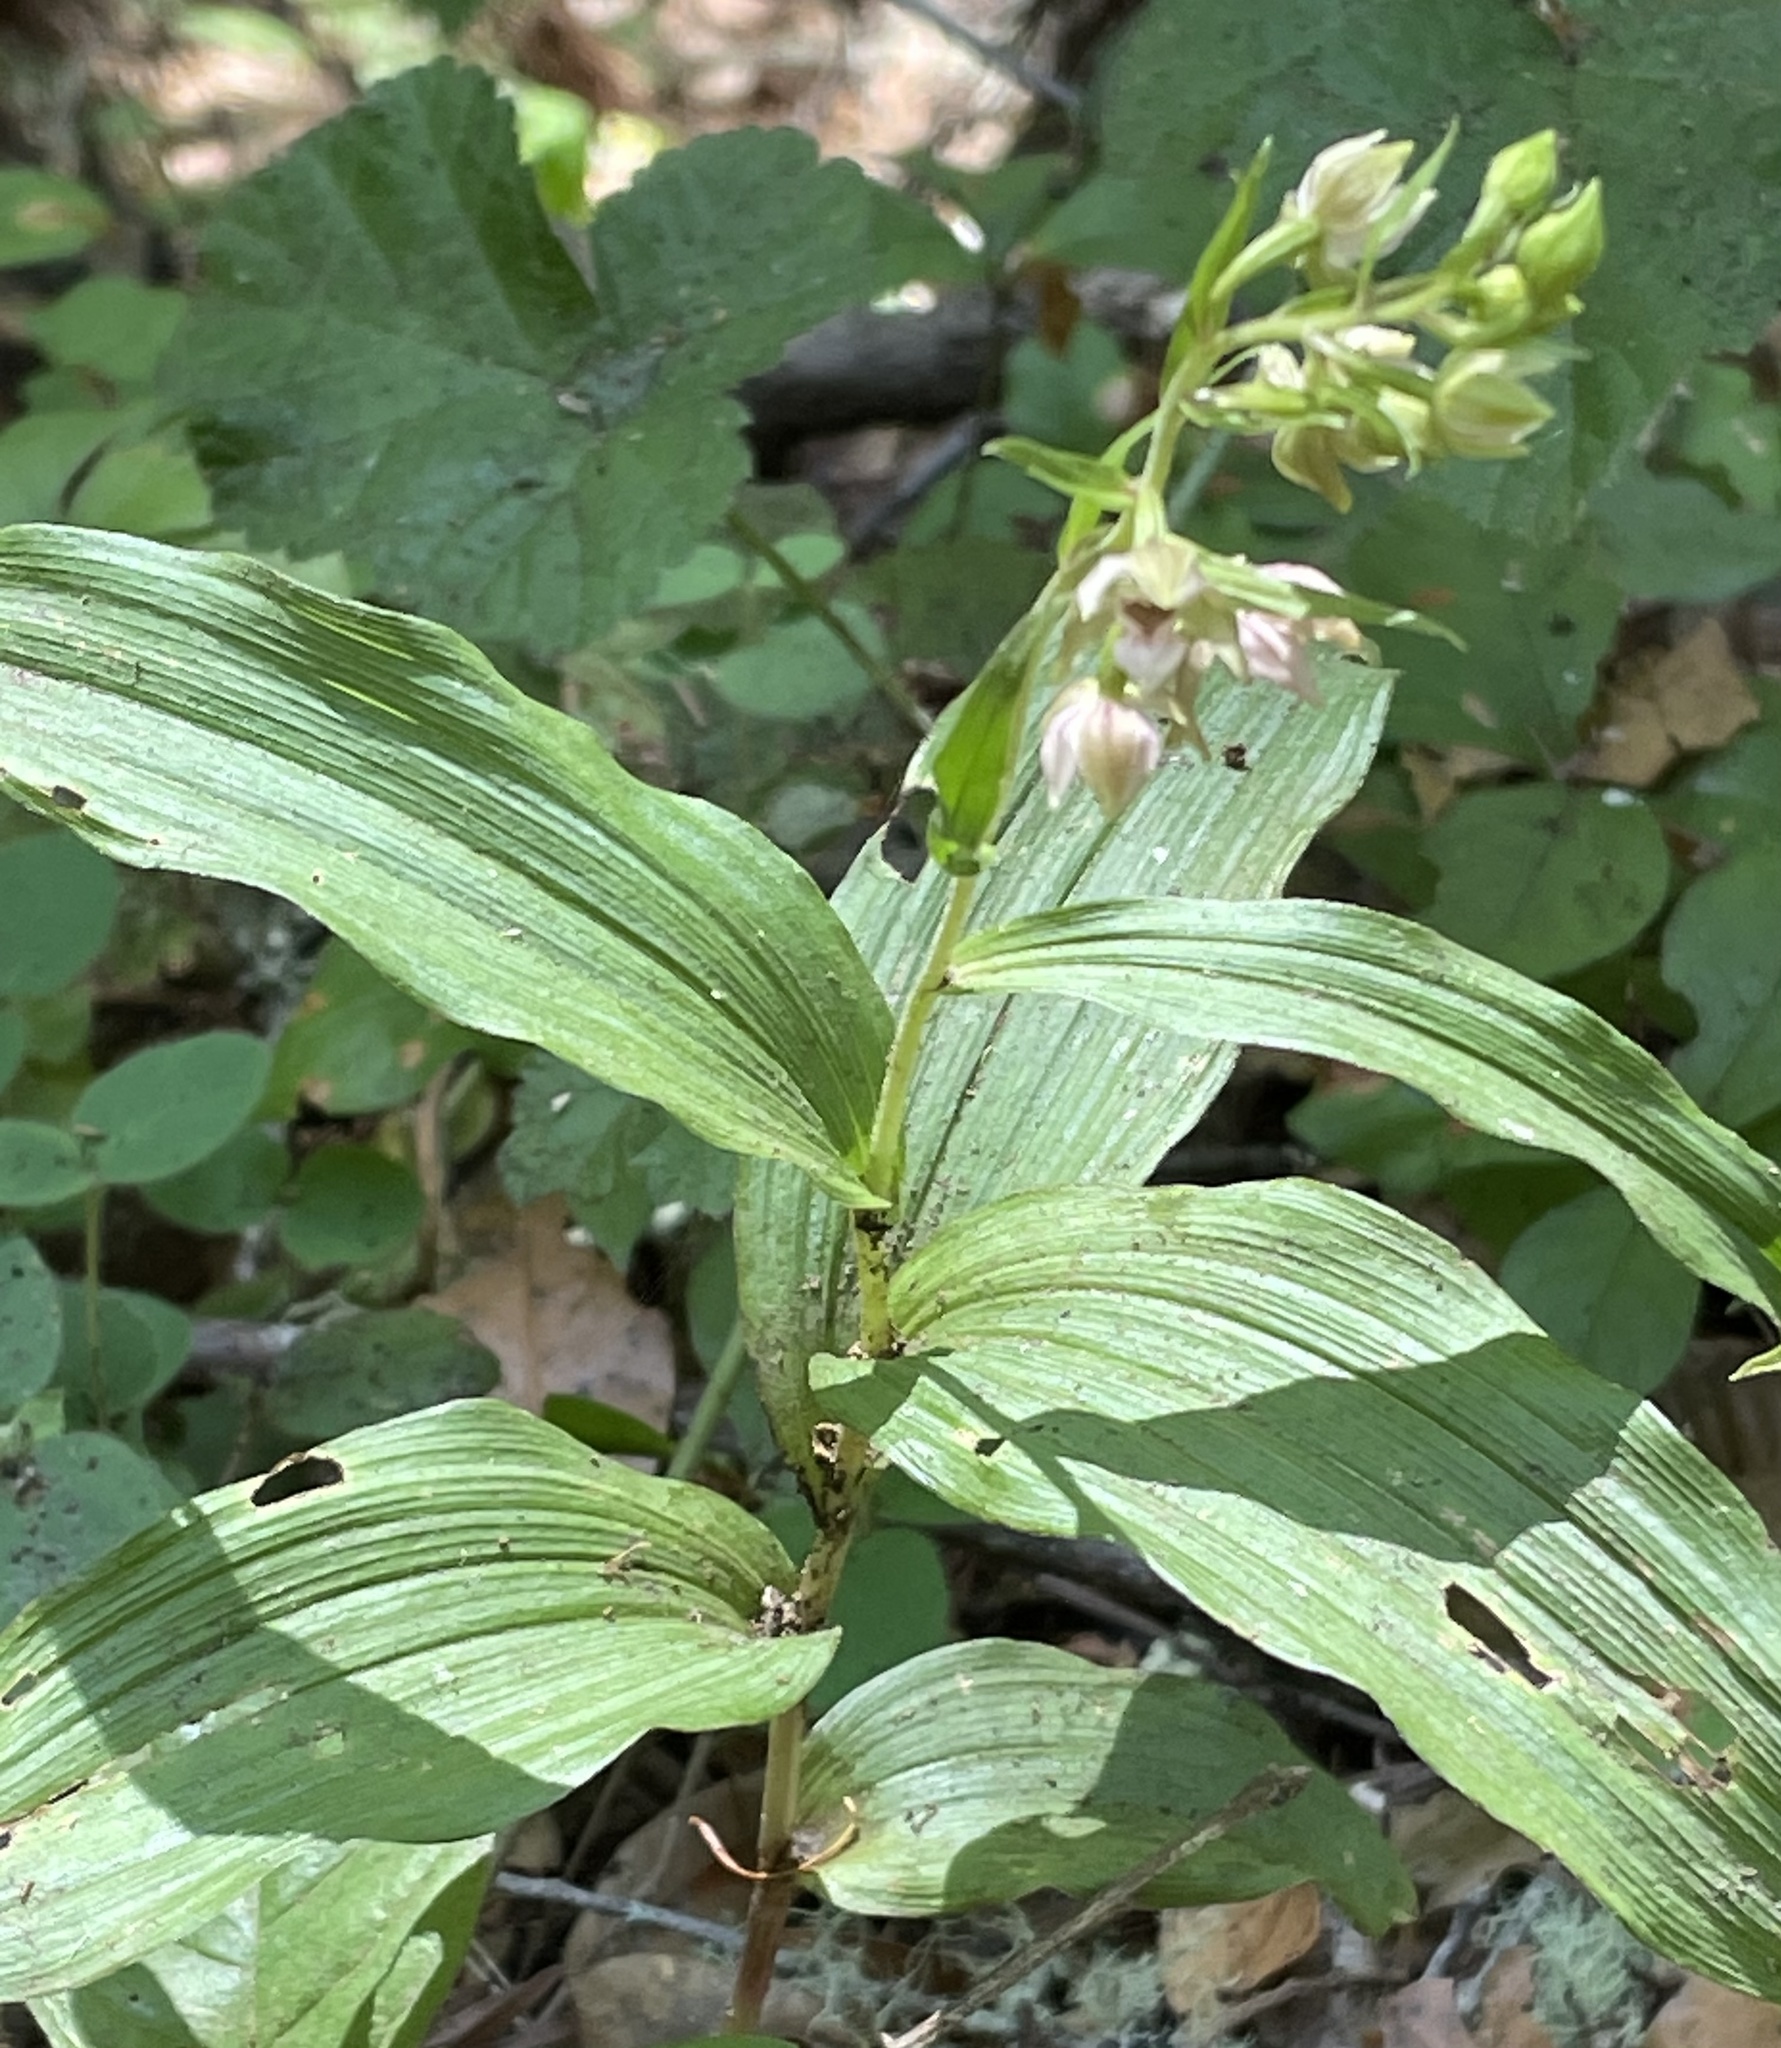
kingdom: Plantae
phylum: Tracheophyta
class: Liliopsida
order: Asparagales
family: Orchidaceae
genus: Epipactis
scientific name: Epipactis helleborine
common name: Broad-leaved helleborine
